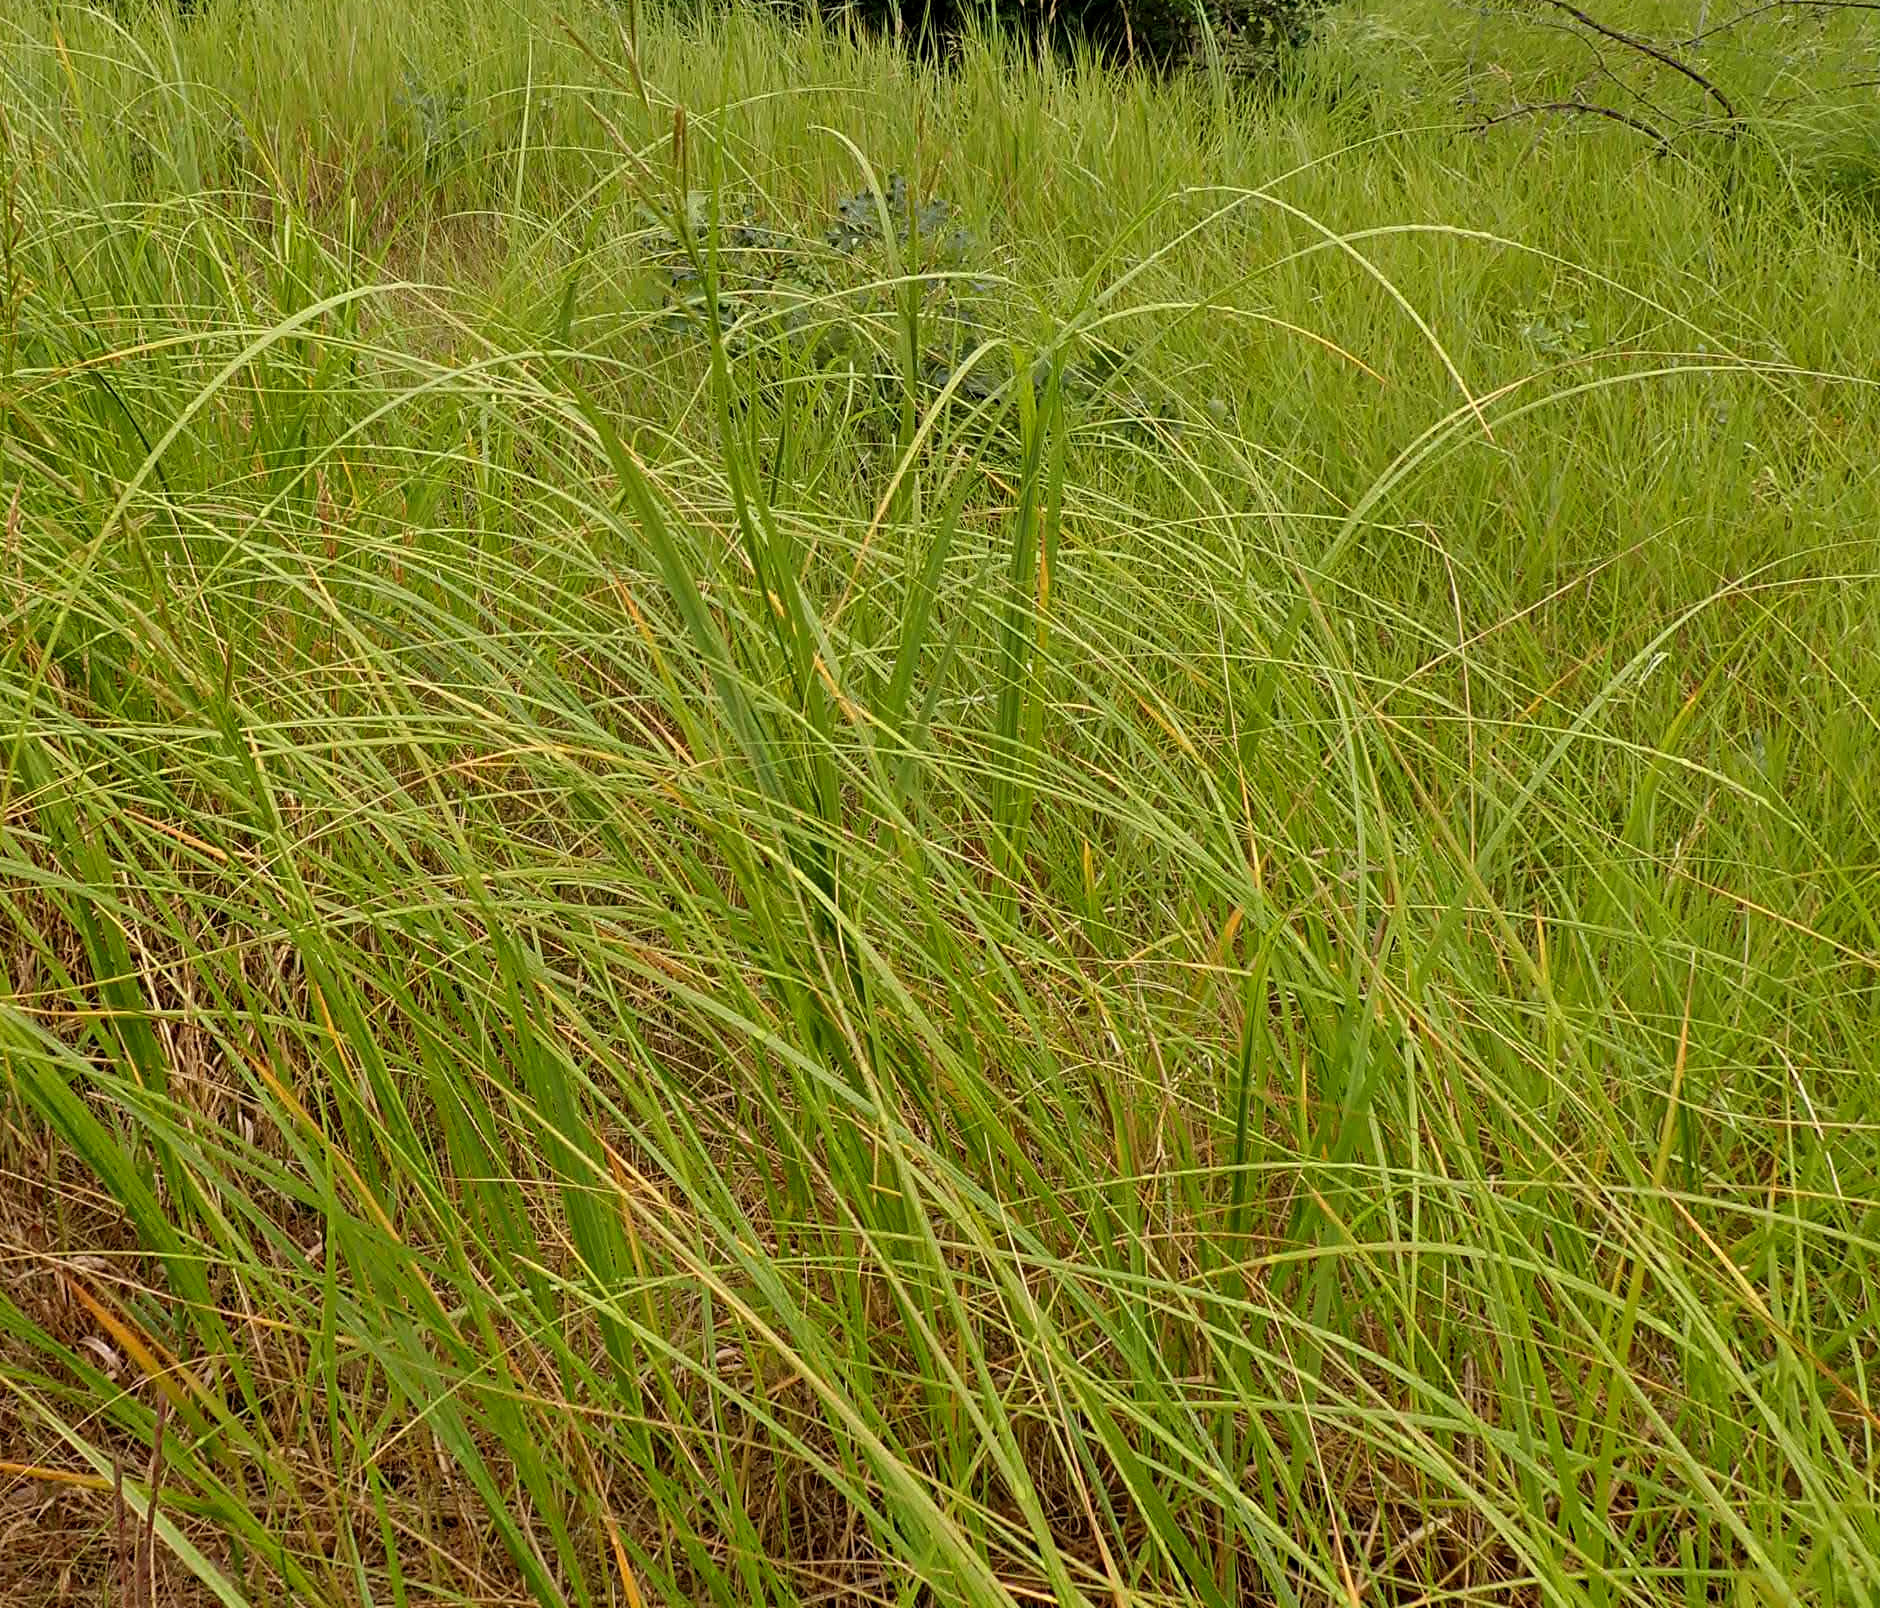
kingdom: Plantae
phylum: Tracheophyta
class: Liliopsida
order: Poales
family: Poaceae
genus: Sporobolus
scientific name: Sporobolus michauxianus
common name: Freshwater cordgrass
